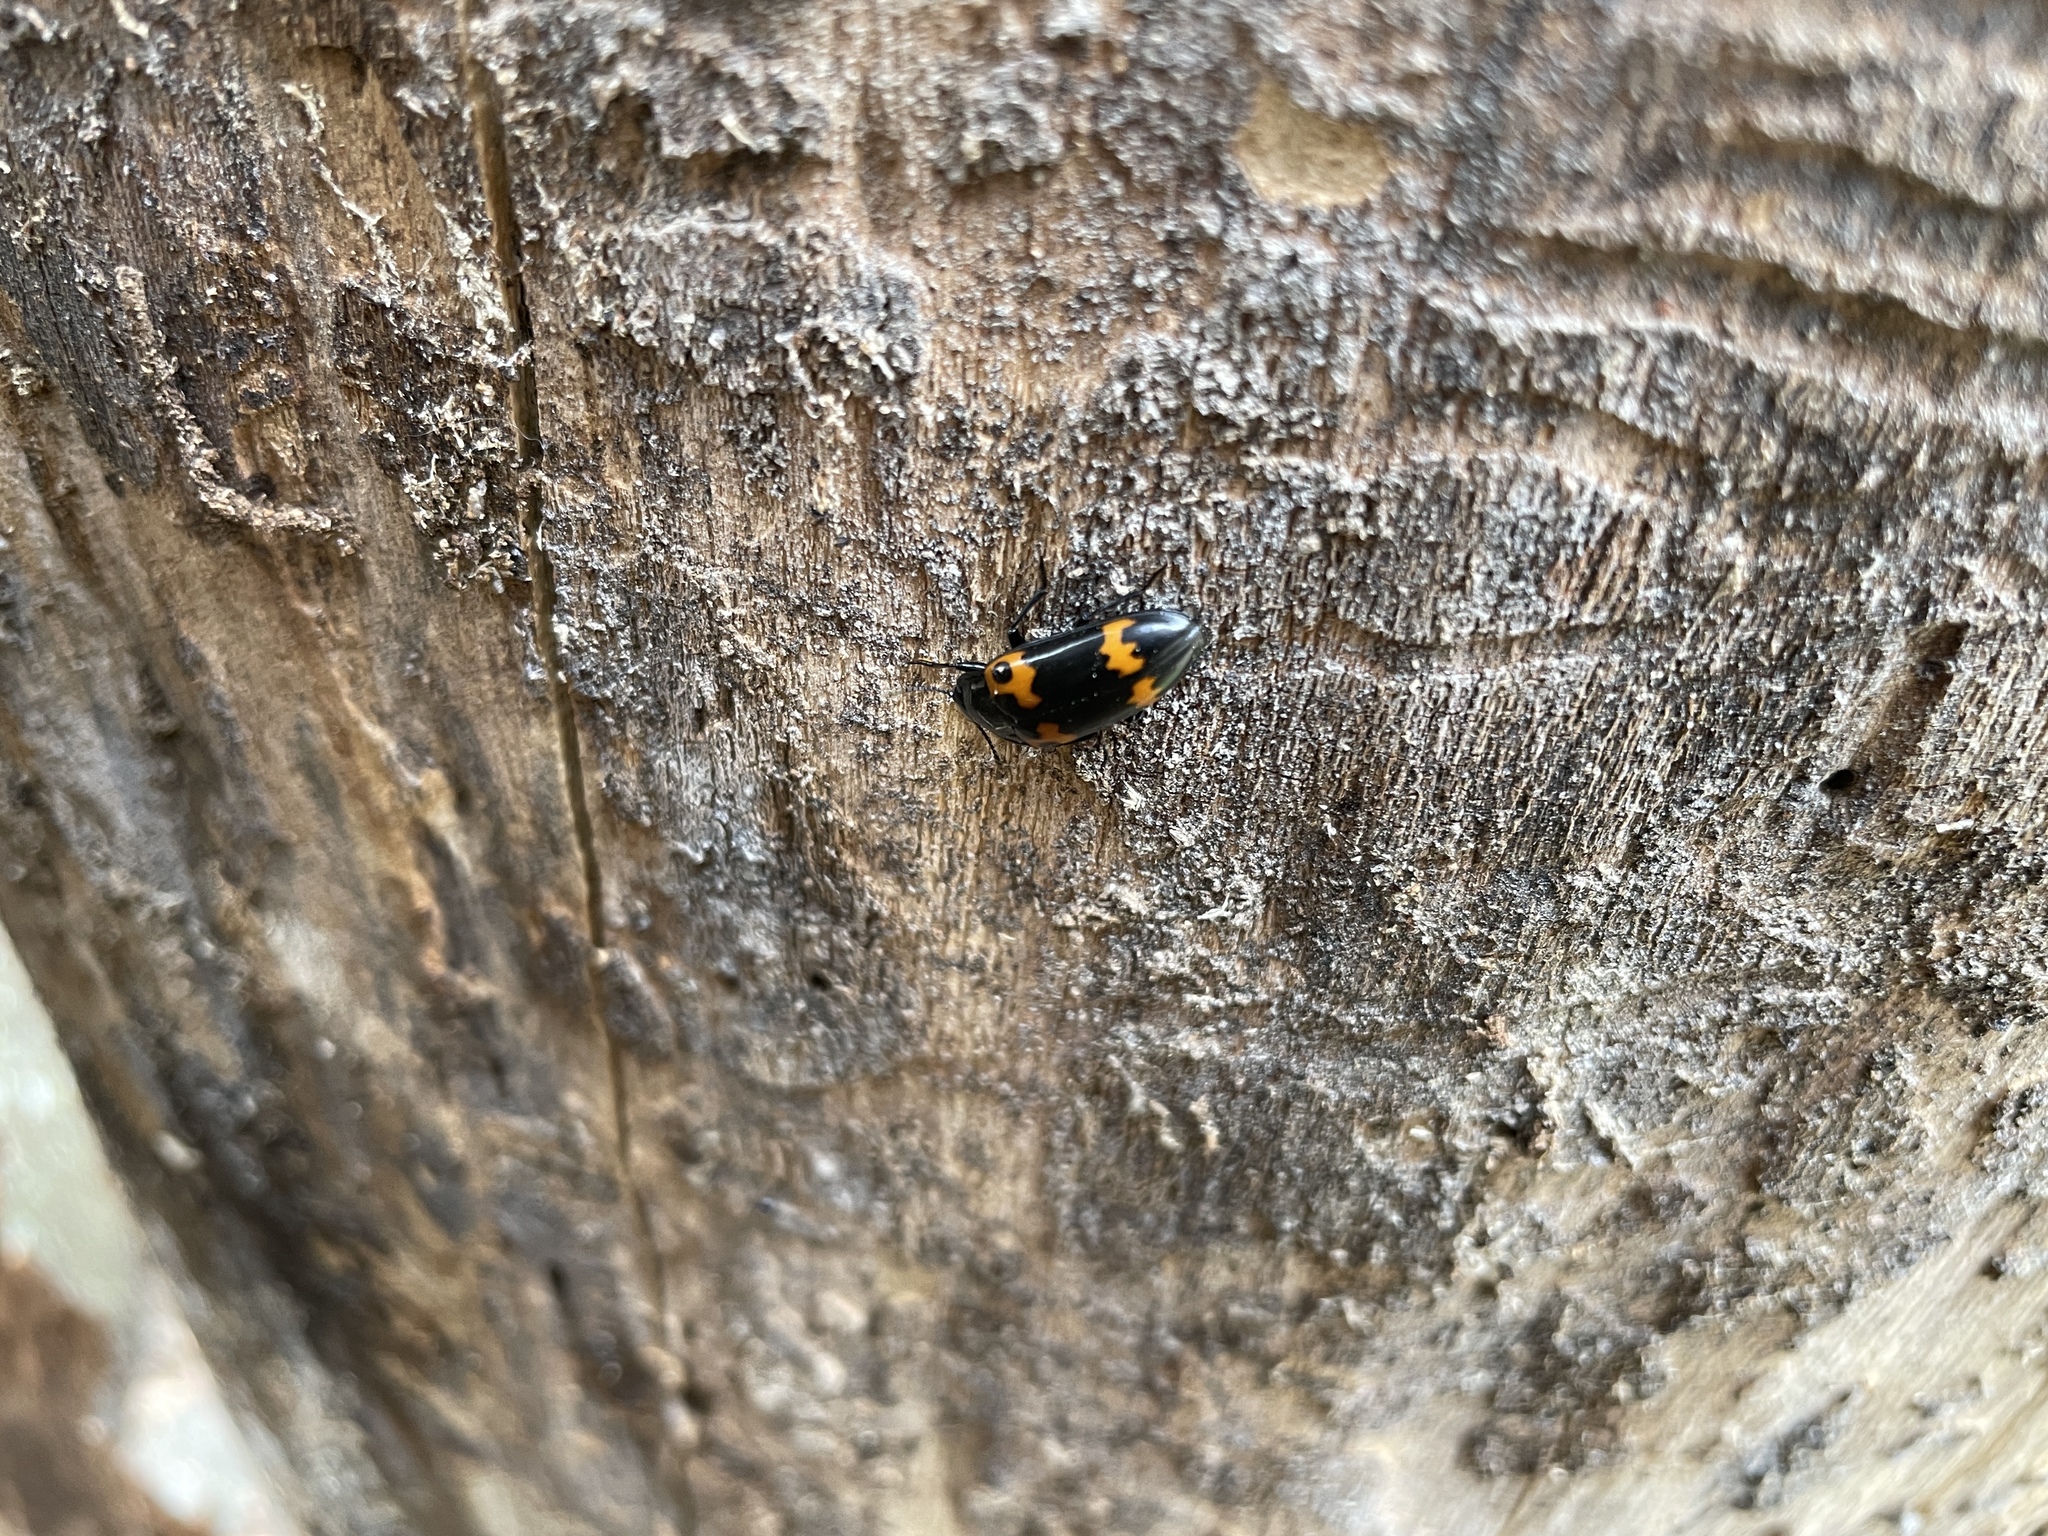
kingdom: Animalia
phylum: Arthropoda
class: Insecta
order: Coleoptera
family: Erotylidae
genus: Megalodacne
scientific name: Megalodacne fasciata
